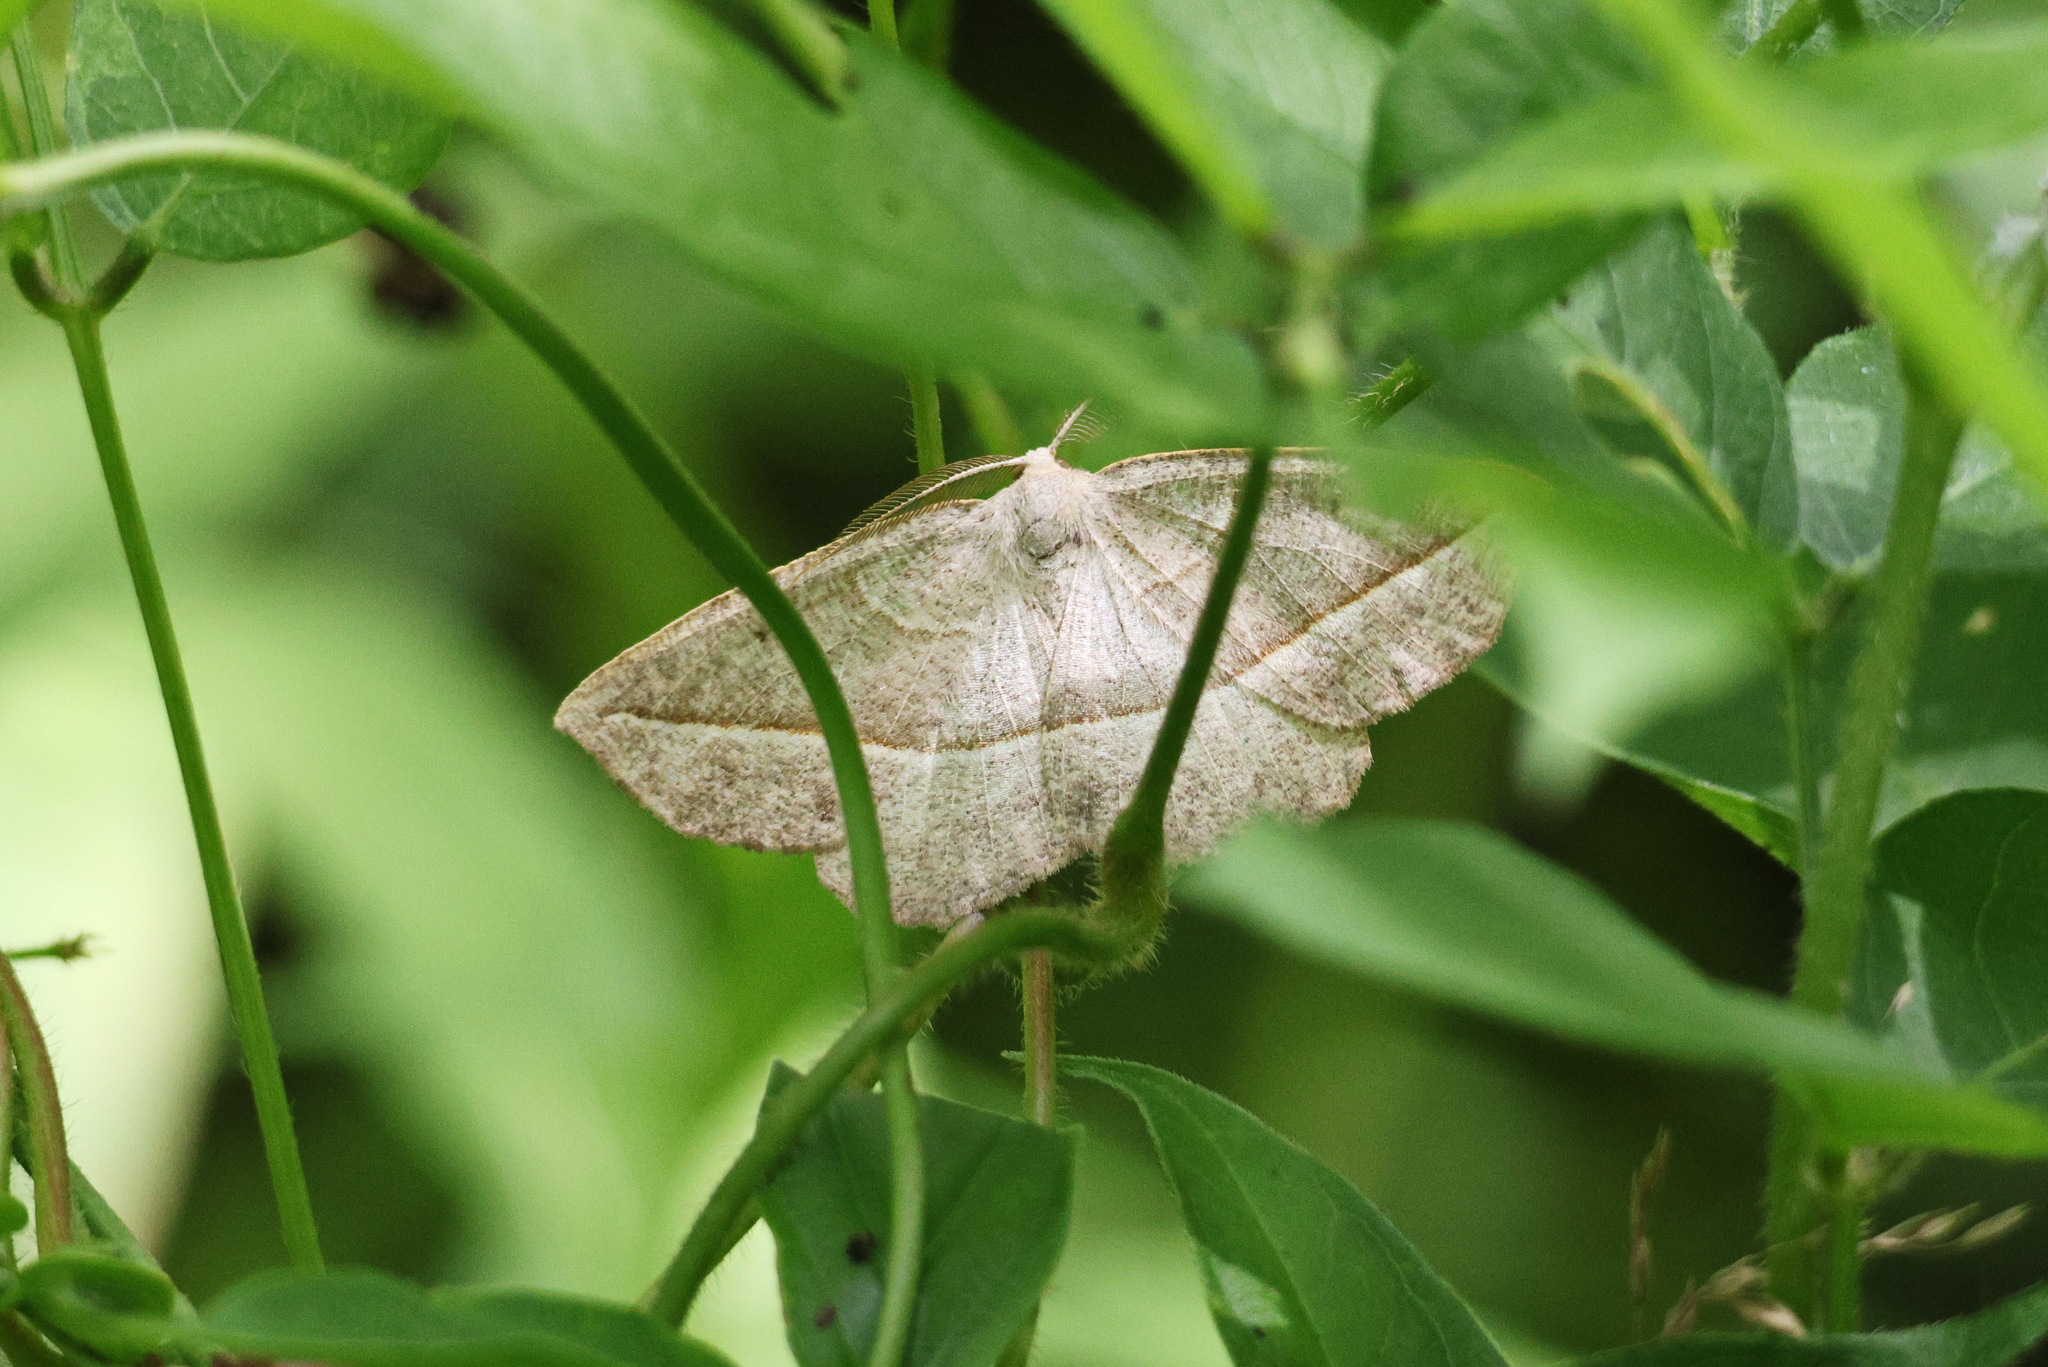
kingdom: Animalia
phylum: Arthropoda
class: Insecta
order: Lepidoptera
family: Geometridae
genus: Eusarca
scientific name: Eusarca confusaria
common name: Confused eusarca
